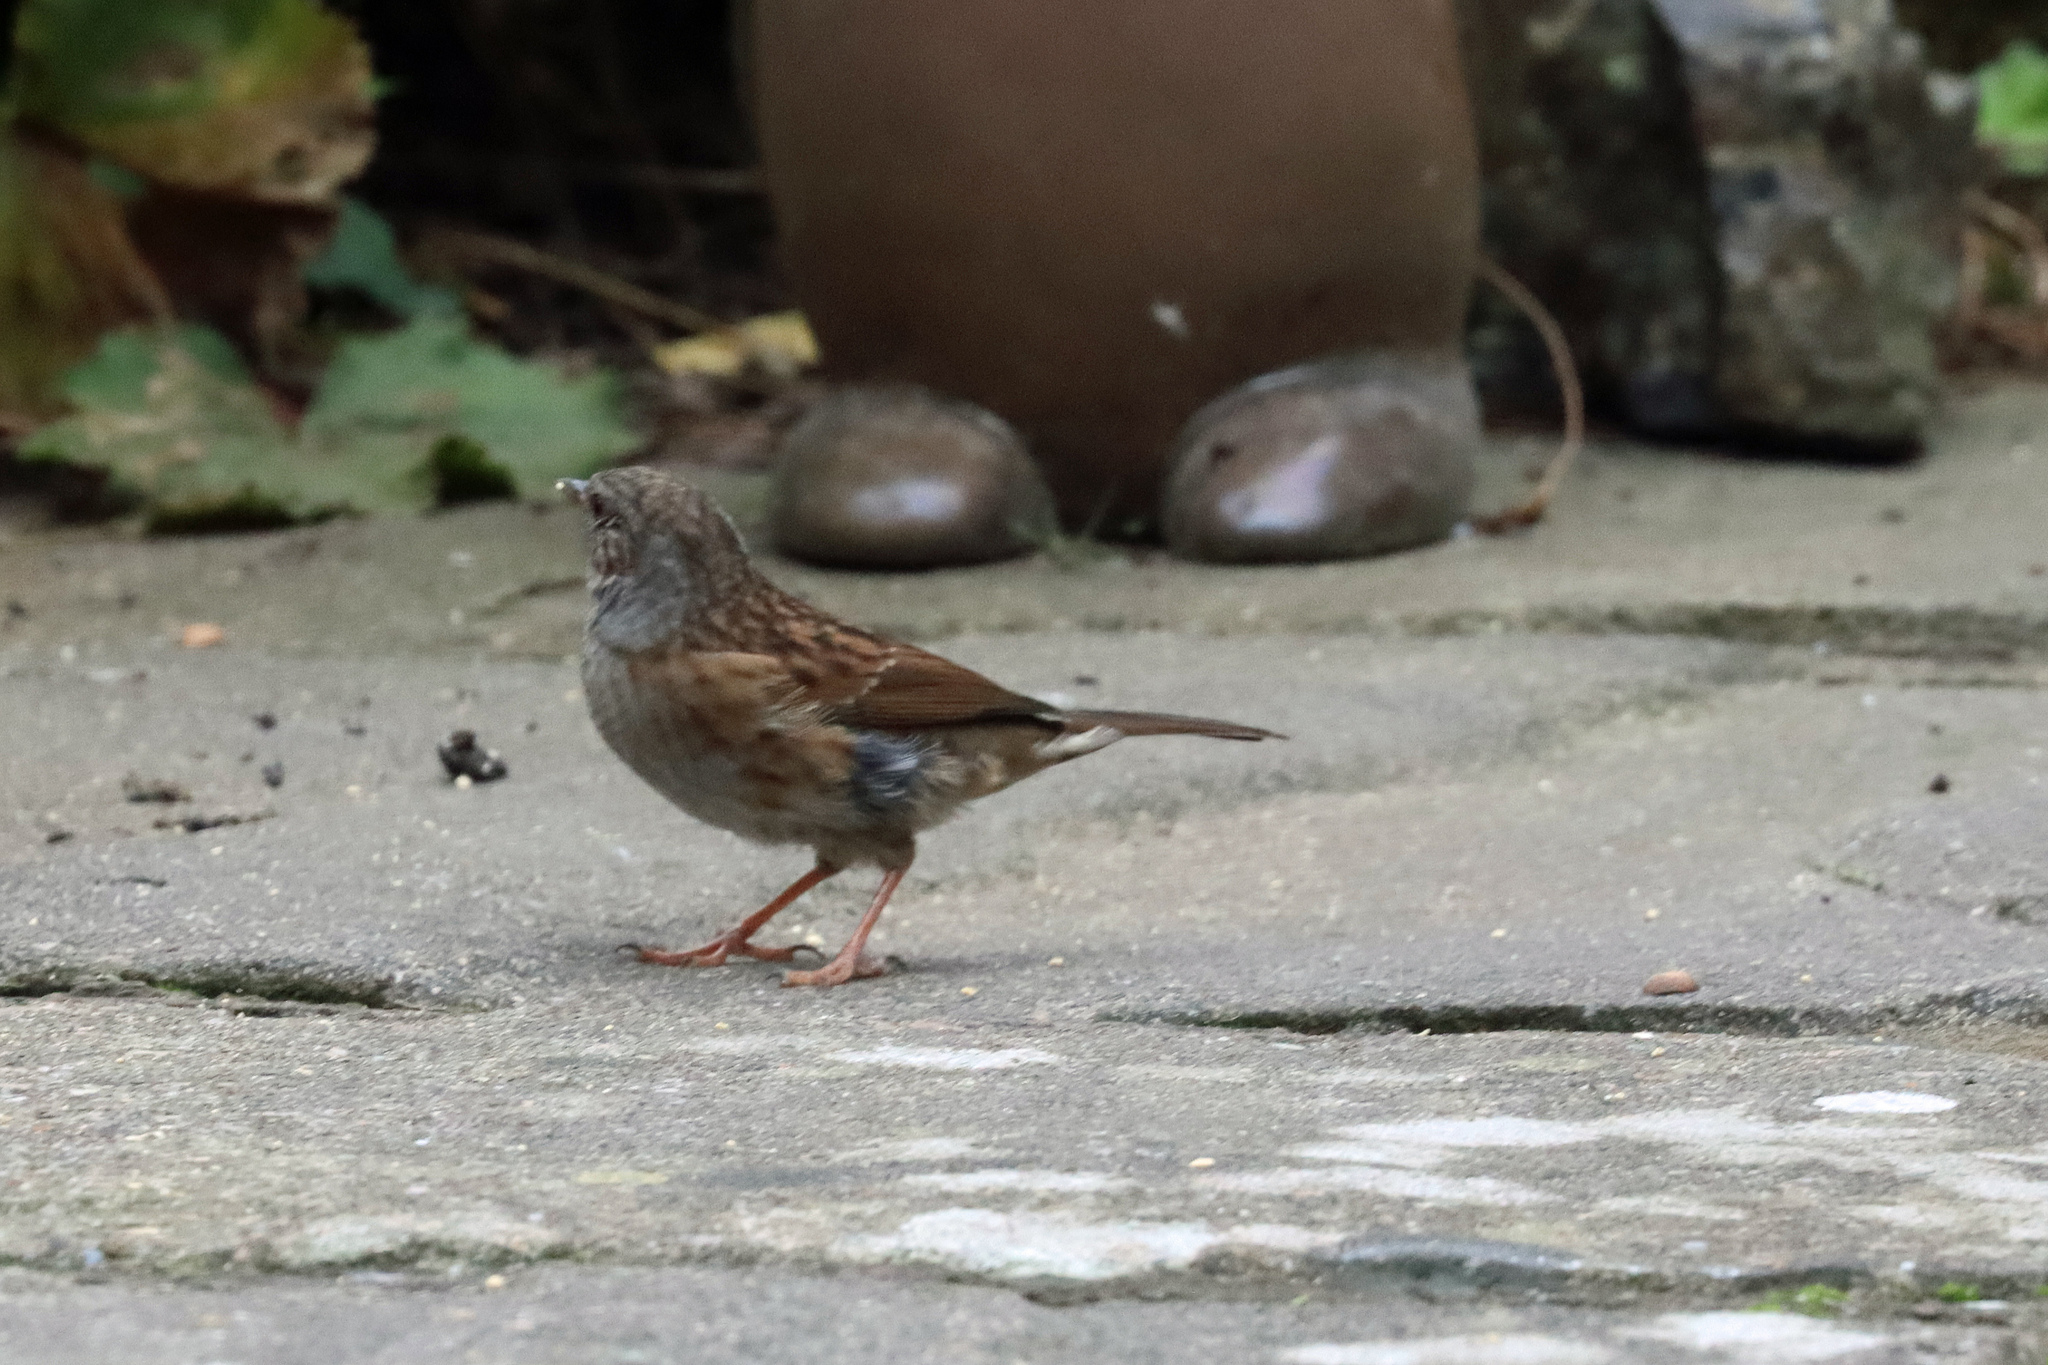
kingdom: Animalia
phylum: Chordata
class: Aves
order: Passeriformes
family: Prunellidae
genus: Prunella
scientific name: Prunella modularis
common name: Dunnock
